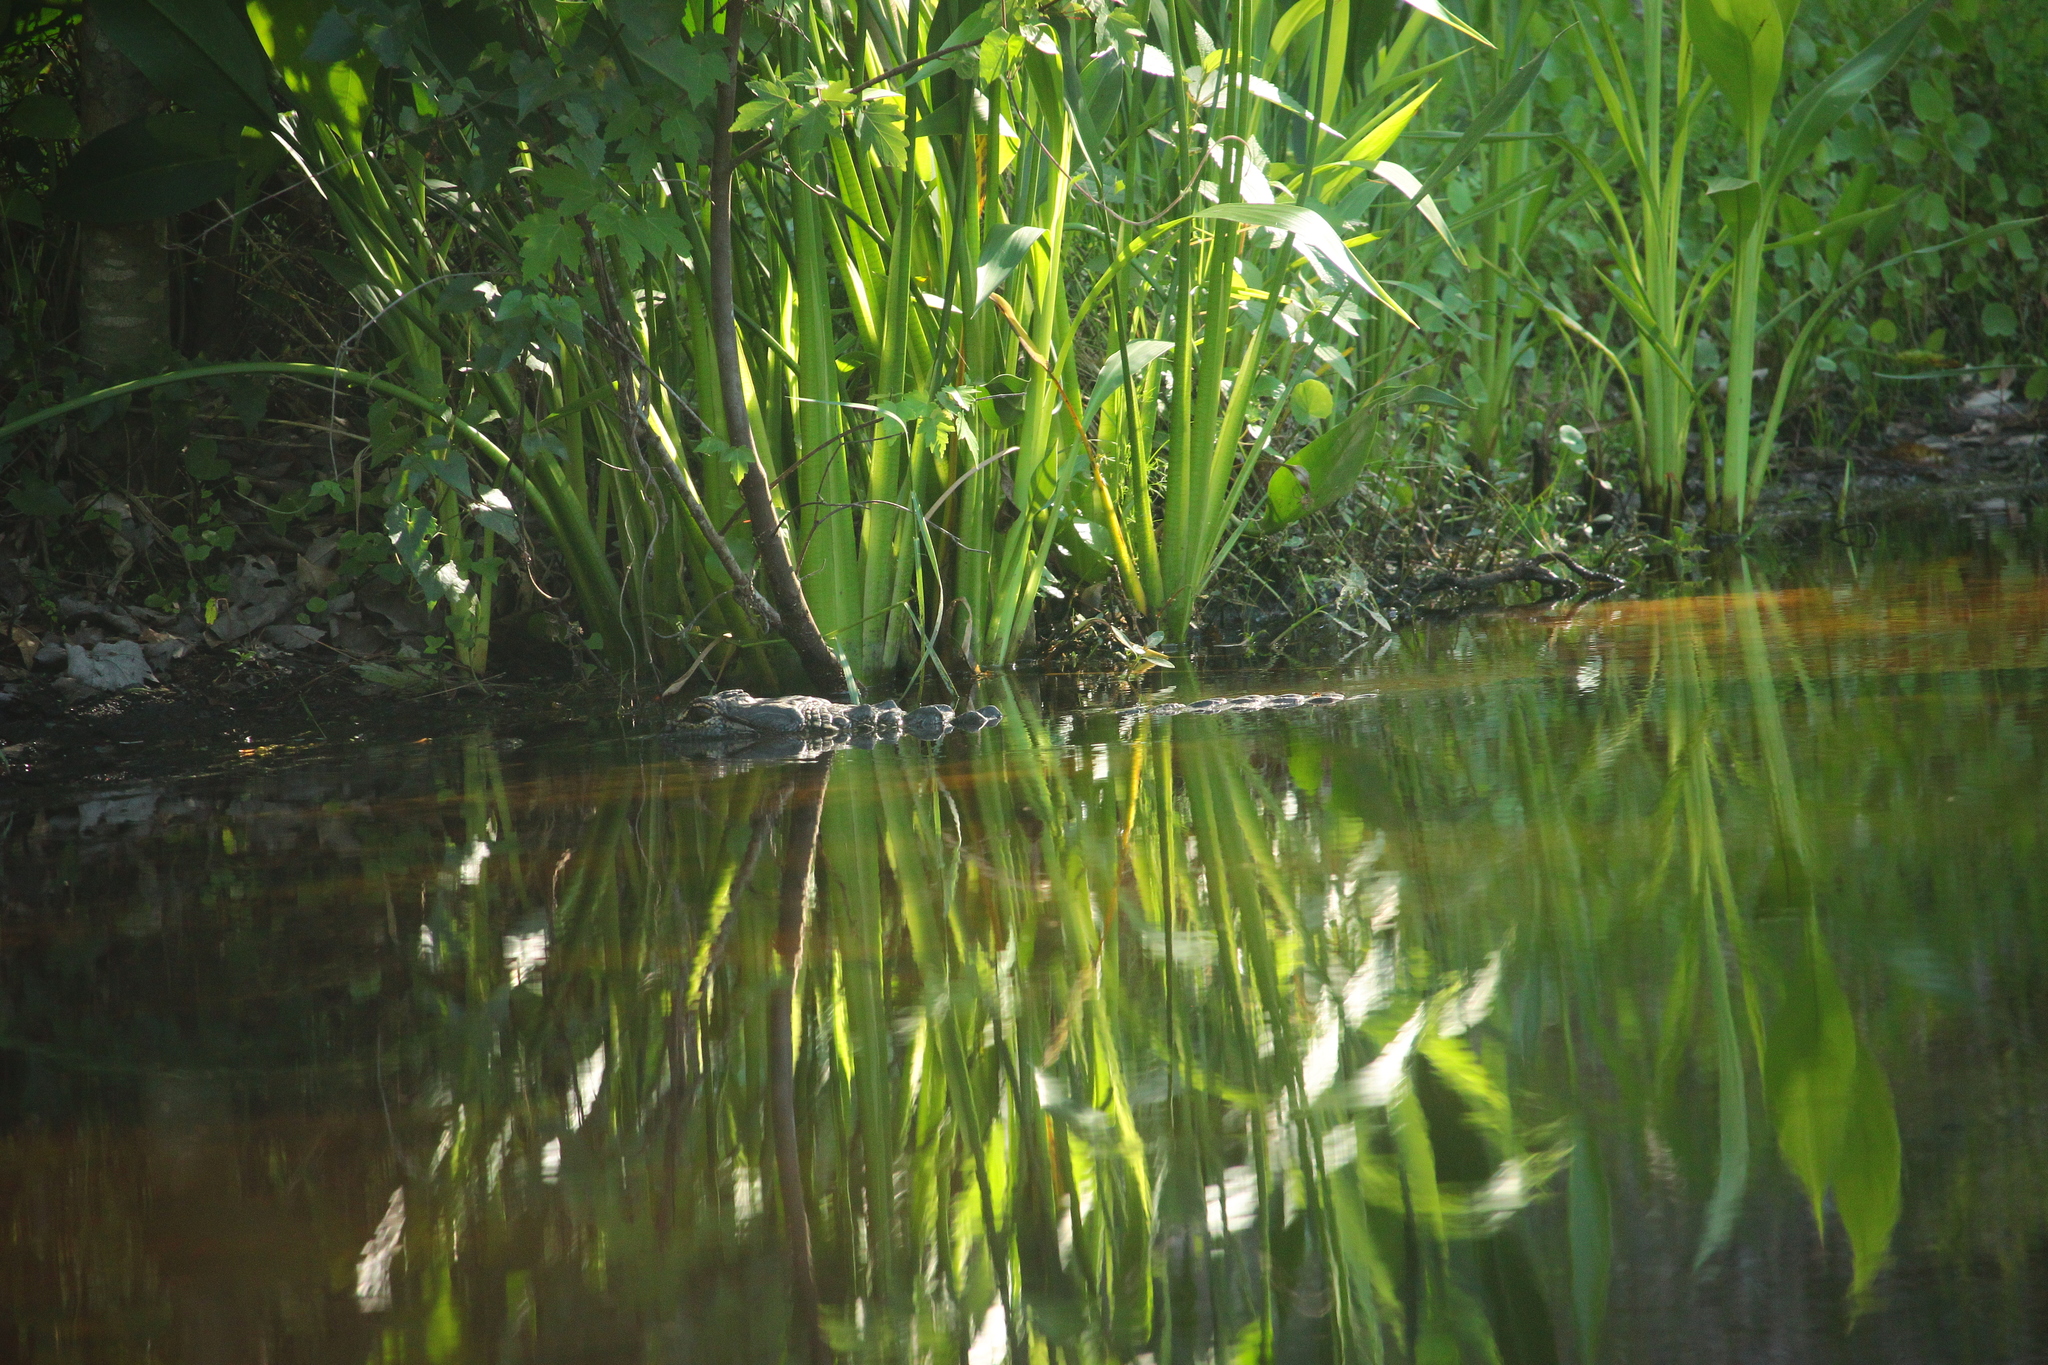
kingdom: Animalia
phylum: Chordata
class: Crocodylia
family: Alligatoridae
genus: Alligator
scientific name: Alligator mississippiensis
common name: American alligator
